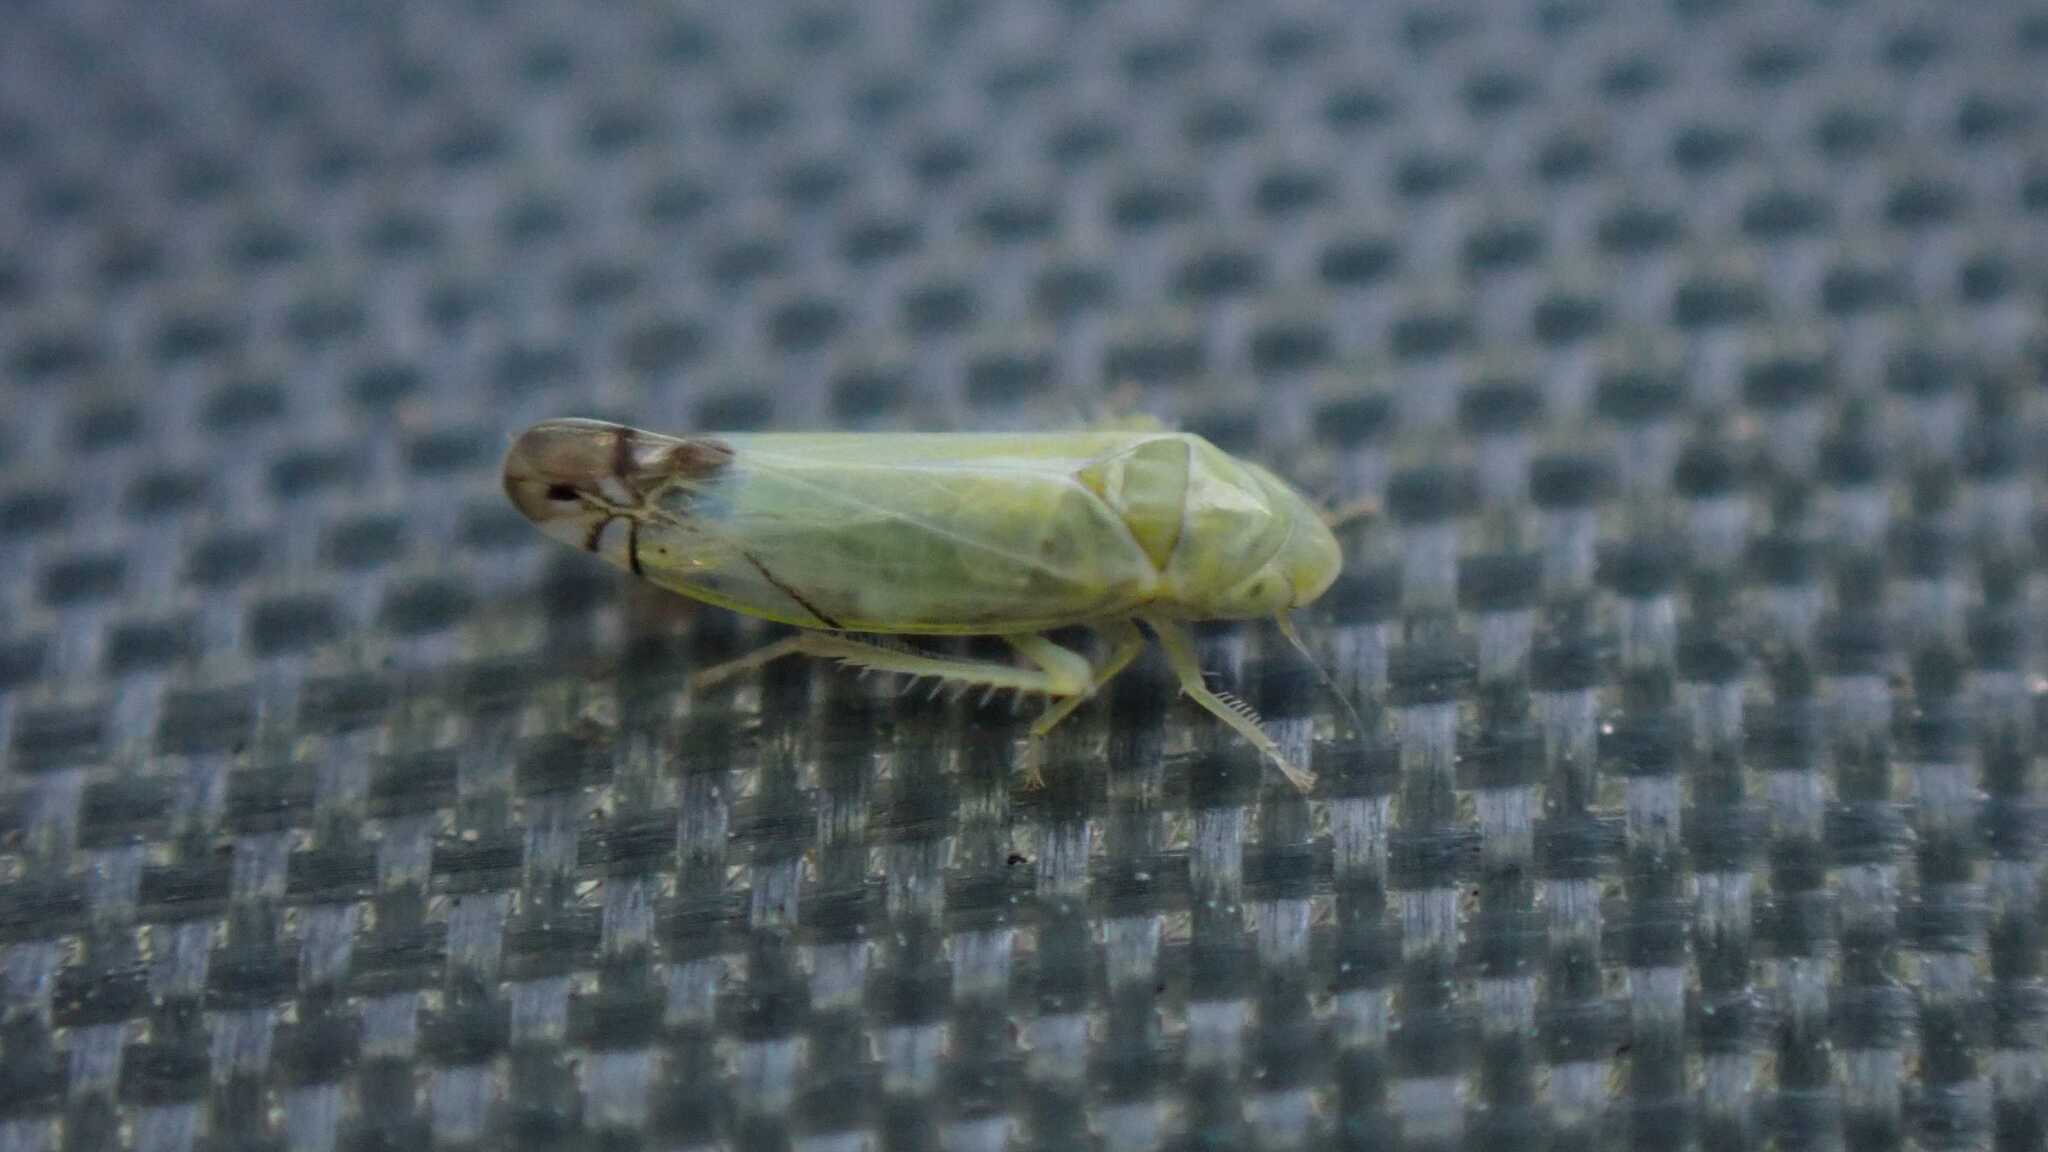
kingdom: Animalia
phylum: Arthropoda
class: Insecta
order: Hemiptera
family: Cicadellidae
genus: Zyginella
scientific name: Zyginella pulchra
